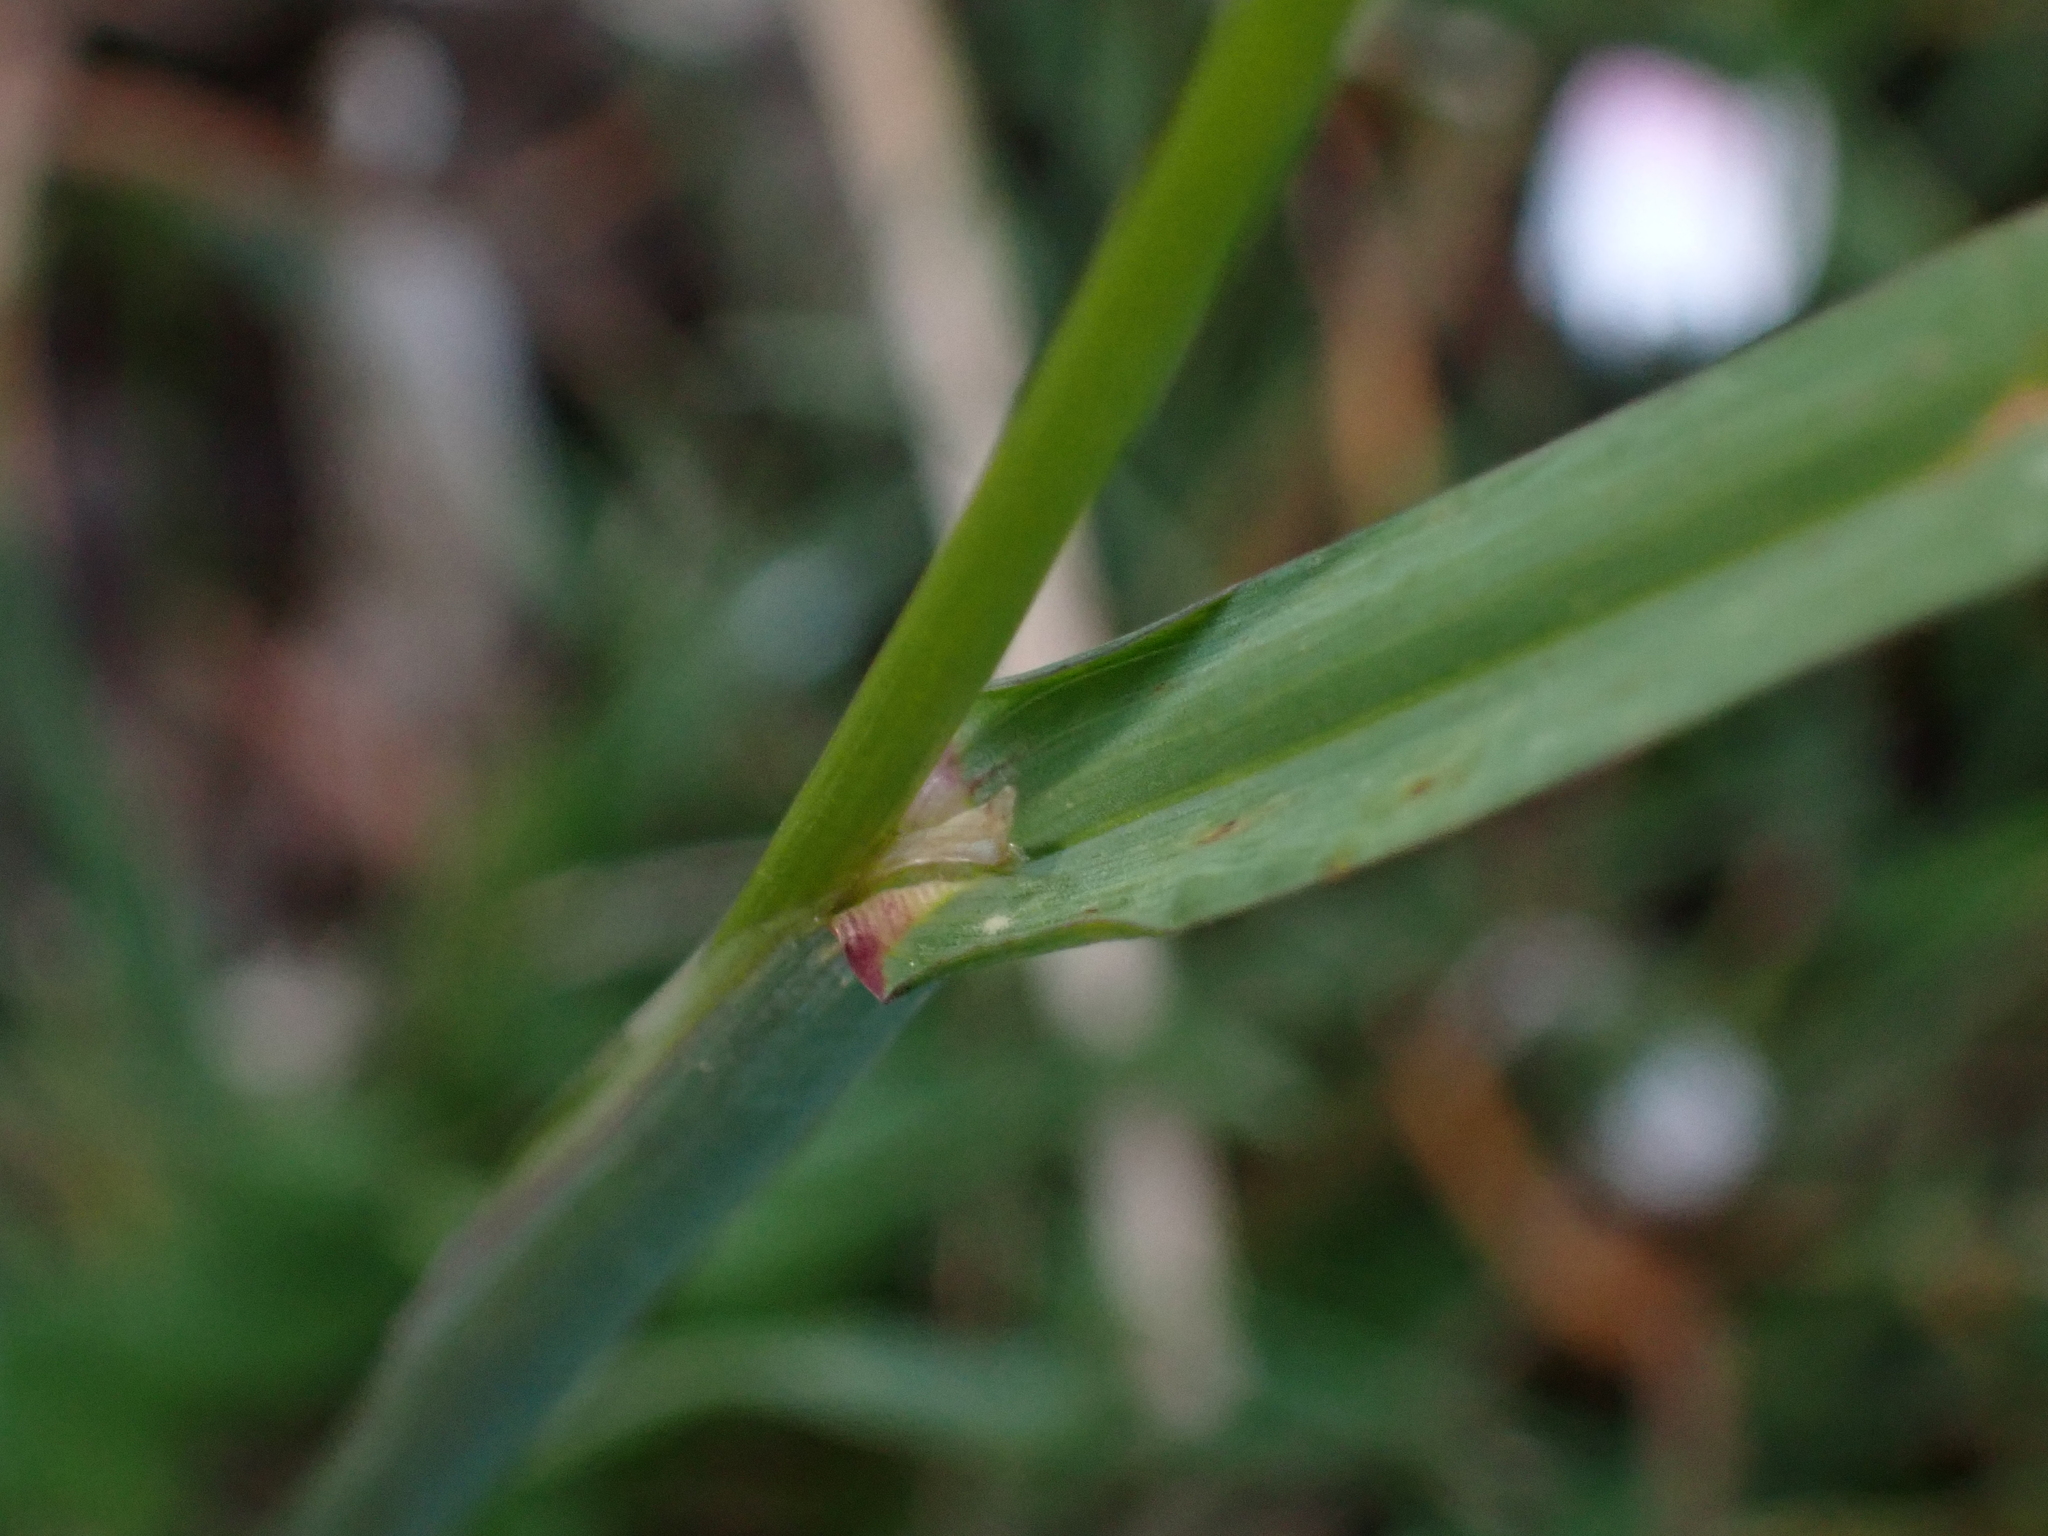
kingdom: Plantae
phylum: Tracheophyta
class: Liliopsida
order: Poales
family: Poaceae
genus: Dactylis
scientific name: Dactylis glomerata
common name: Orchardgrass
